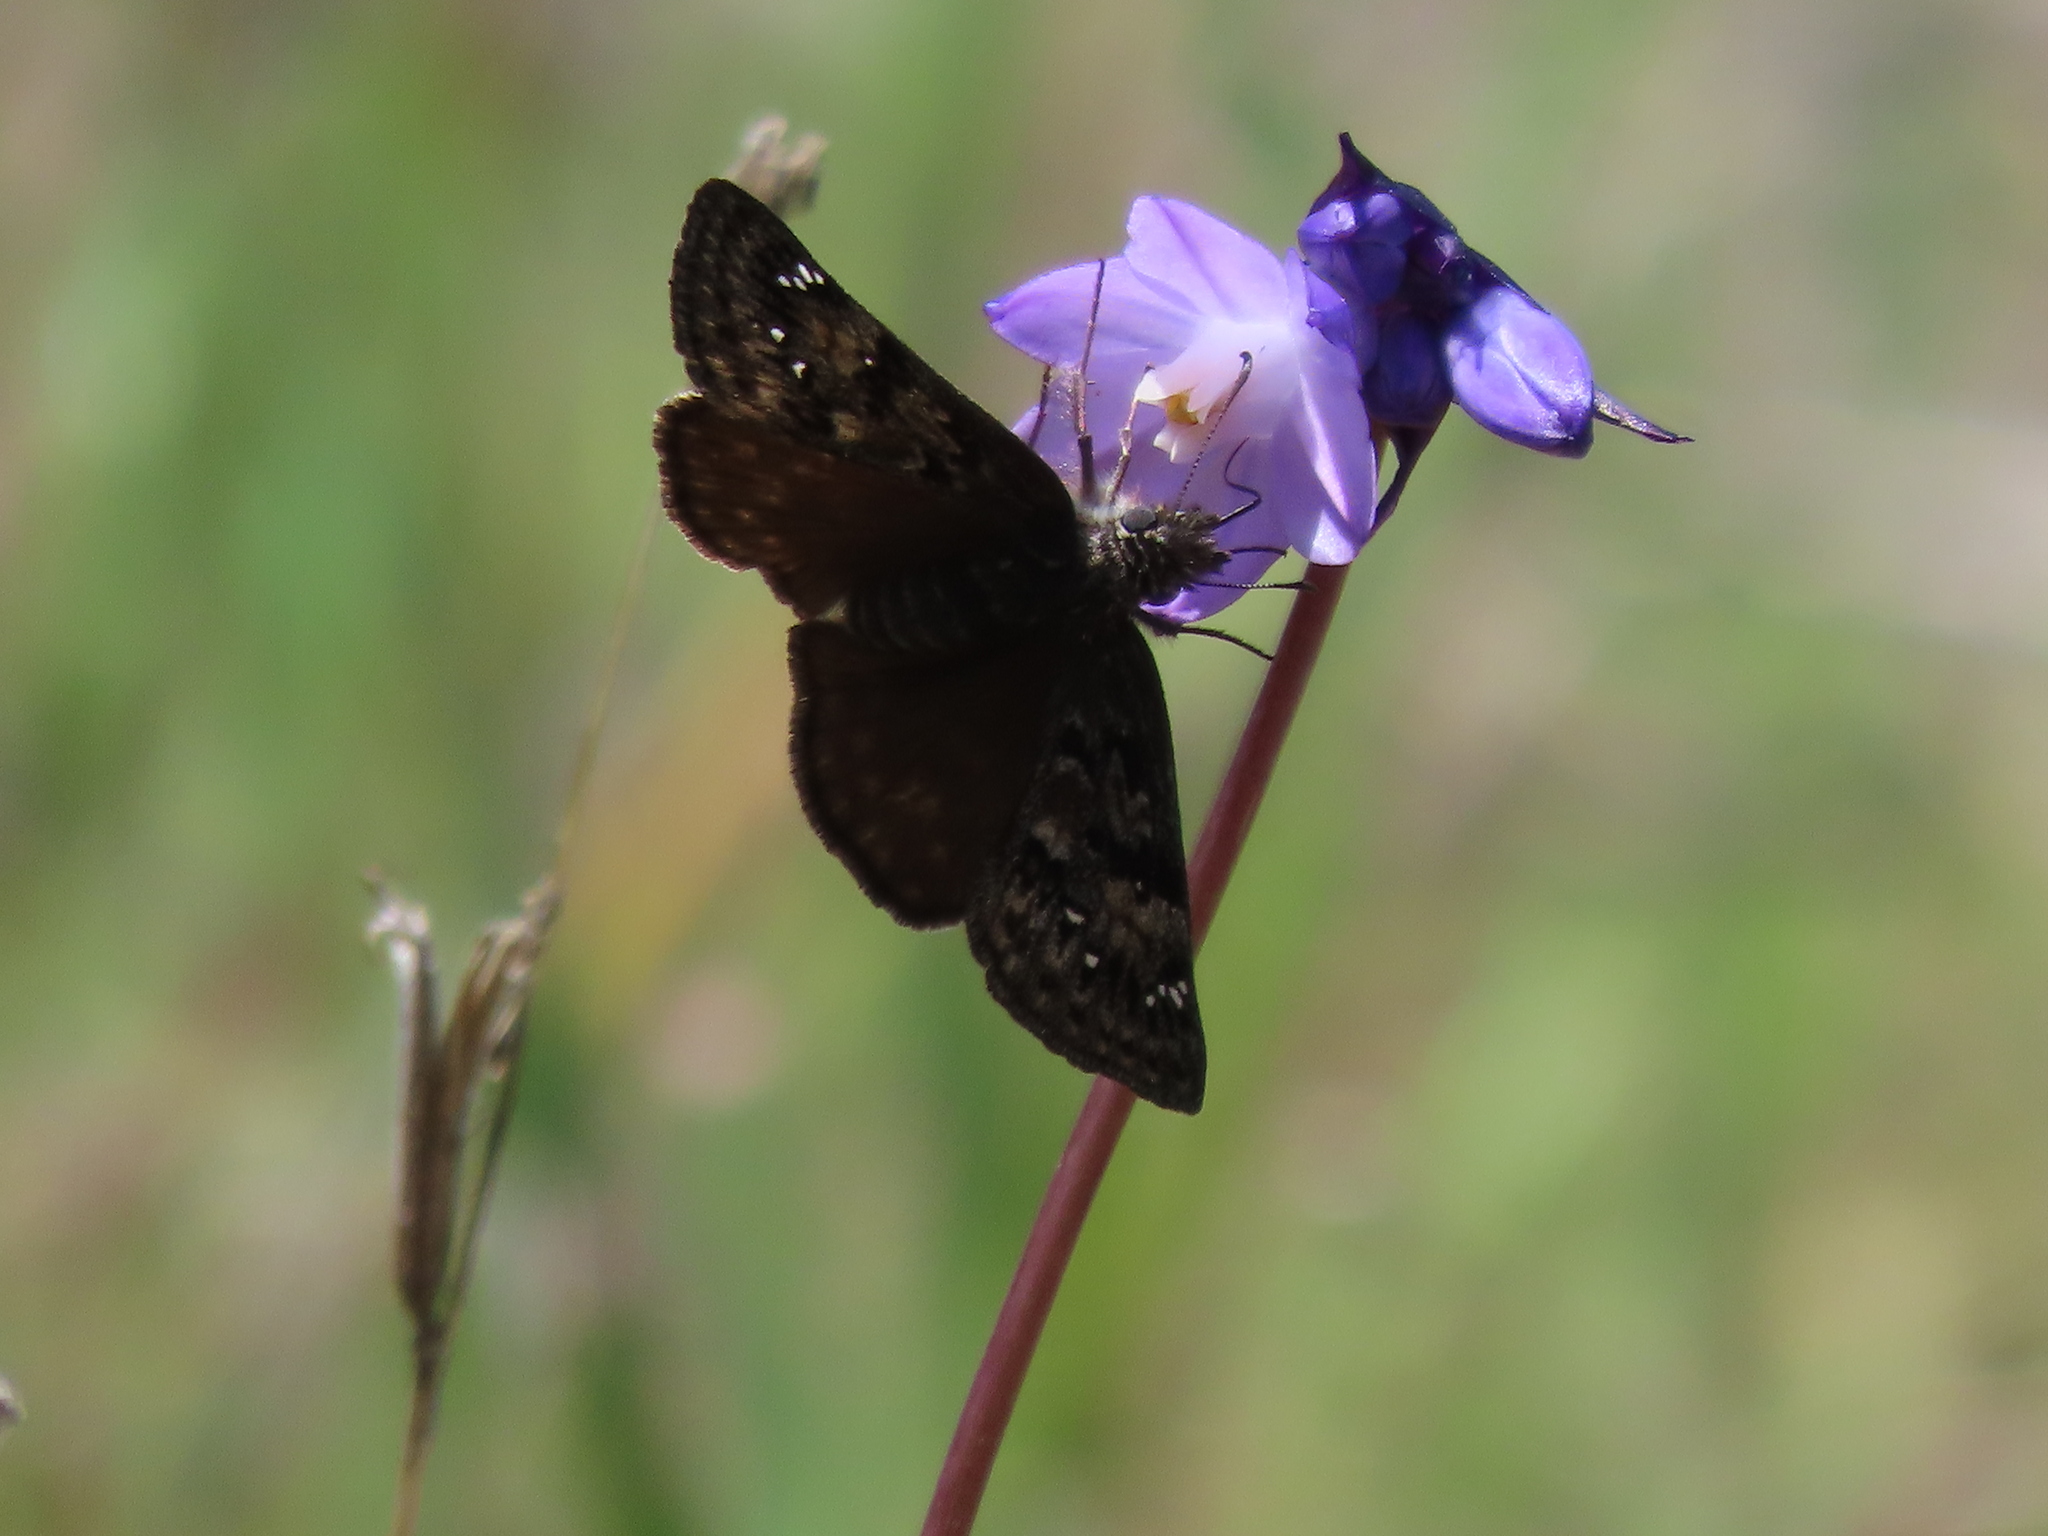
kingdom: Animalia
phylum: Arthropoda
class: Insecta
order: Lepidoptera
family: Hesperiidae
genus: Erynnis
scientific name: Erynnis propertius
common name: Propertius duskywing
